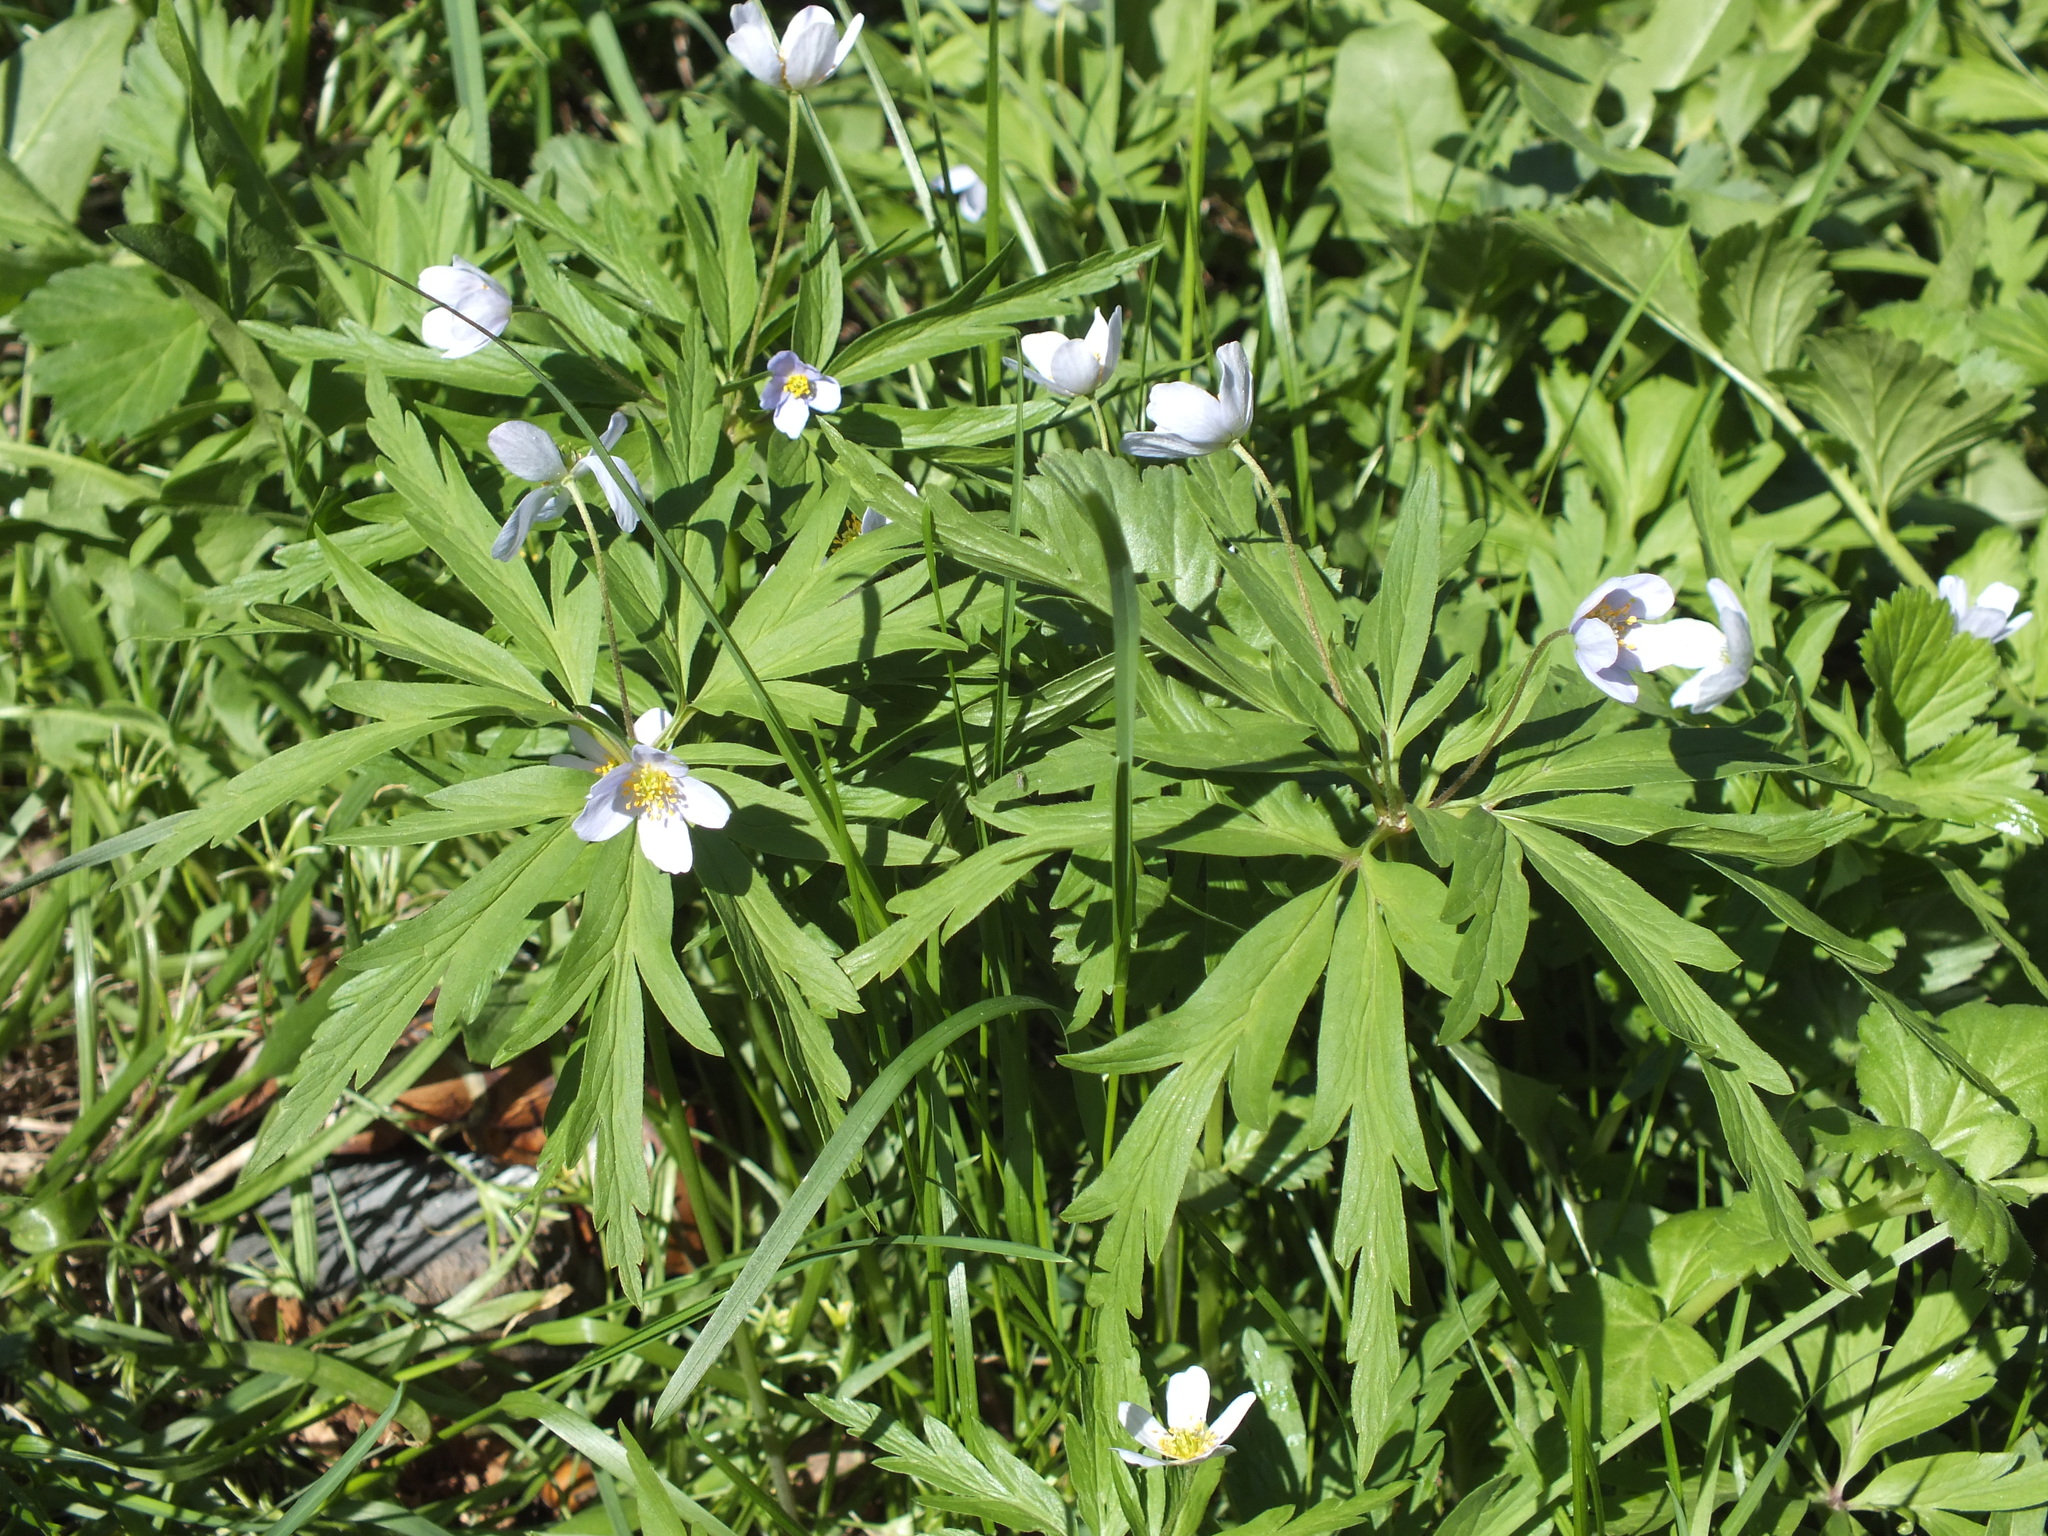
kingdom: Plantae
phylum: Tracheophyta
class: Magnoliopsida
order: Ranunculales
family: Ranunculaceae
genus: Anemone
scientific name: Anemone caerulea
